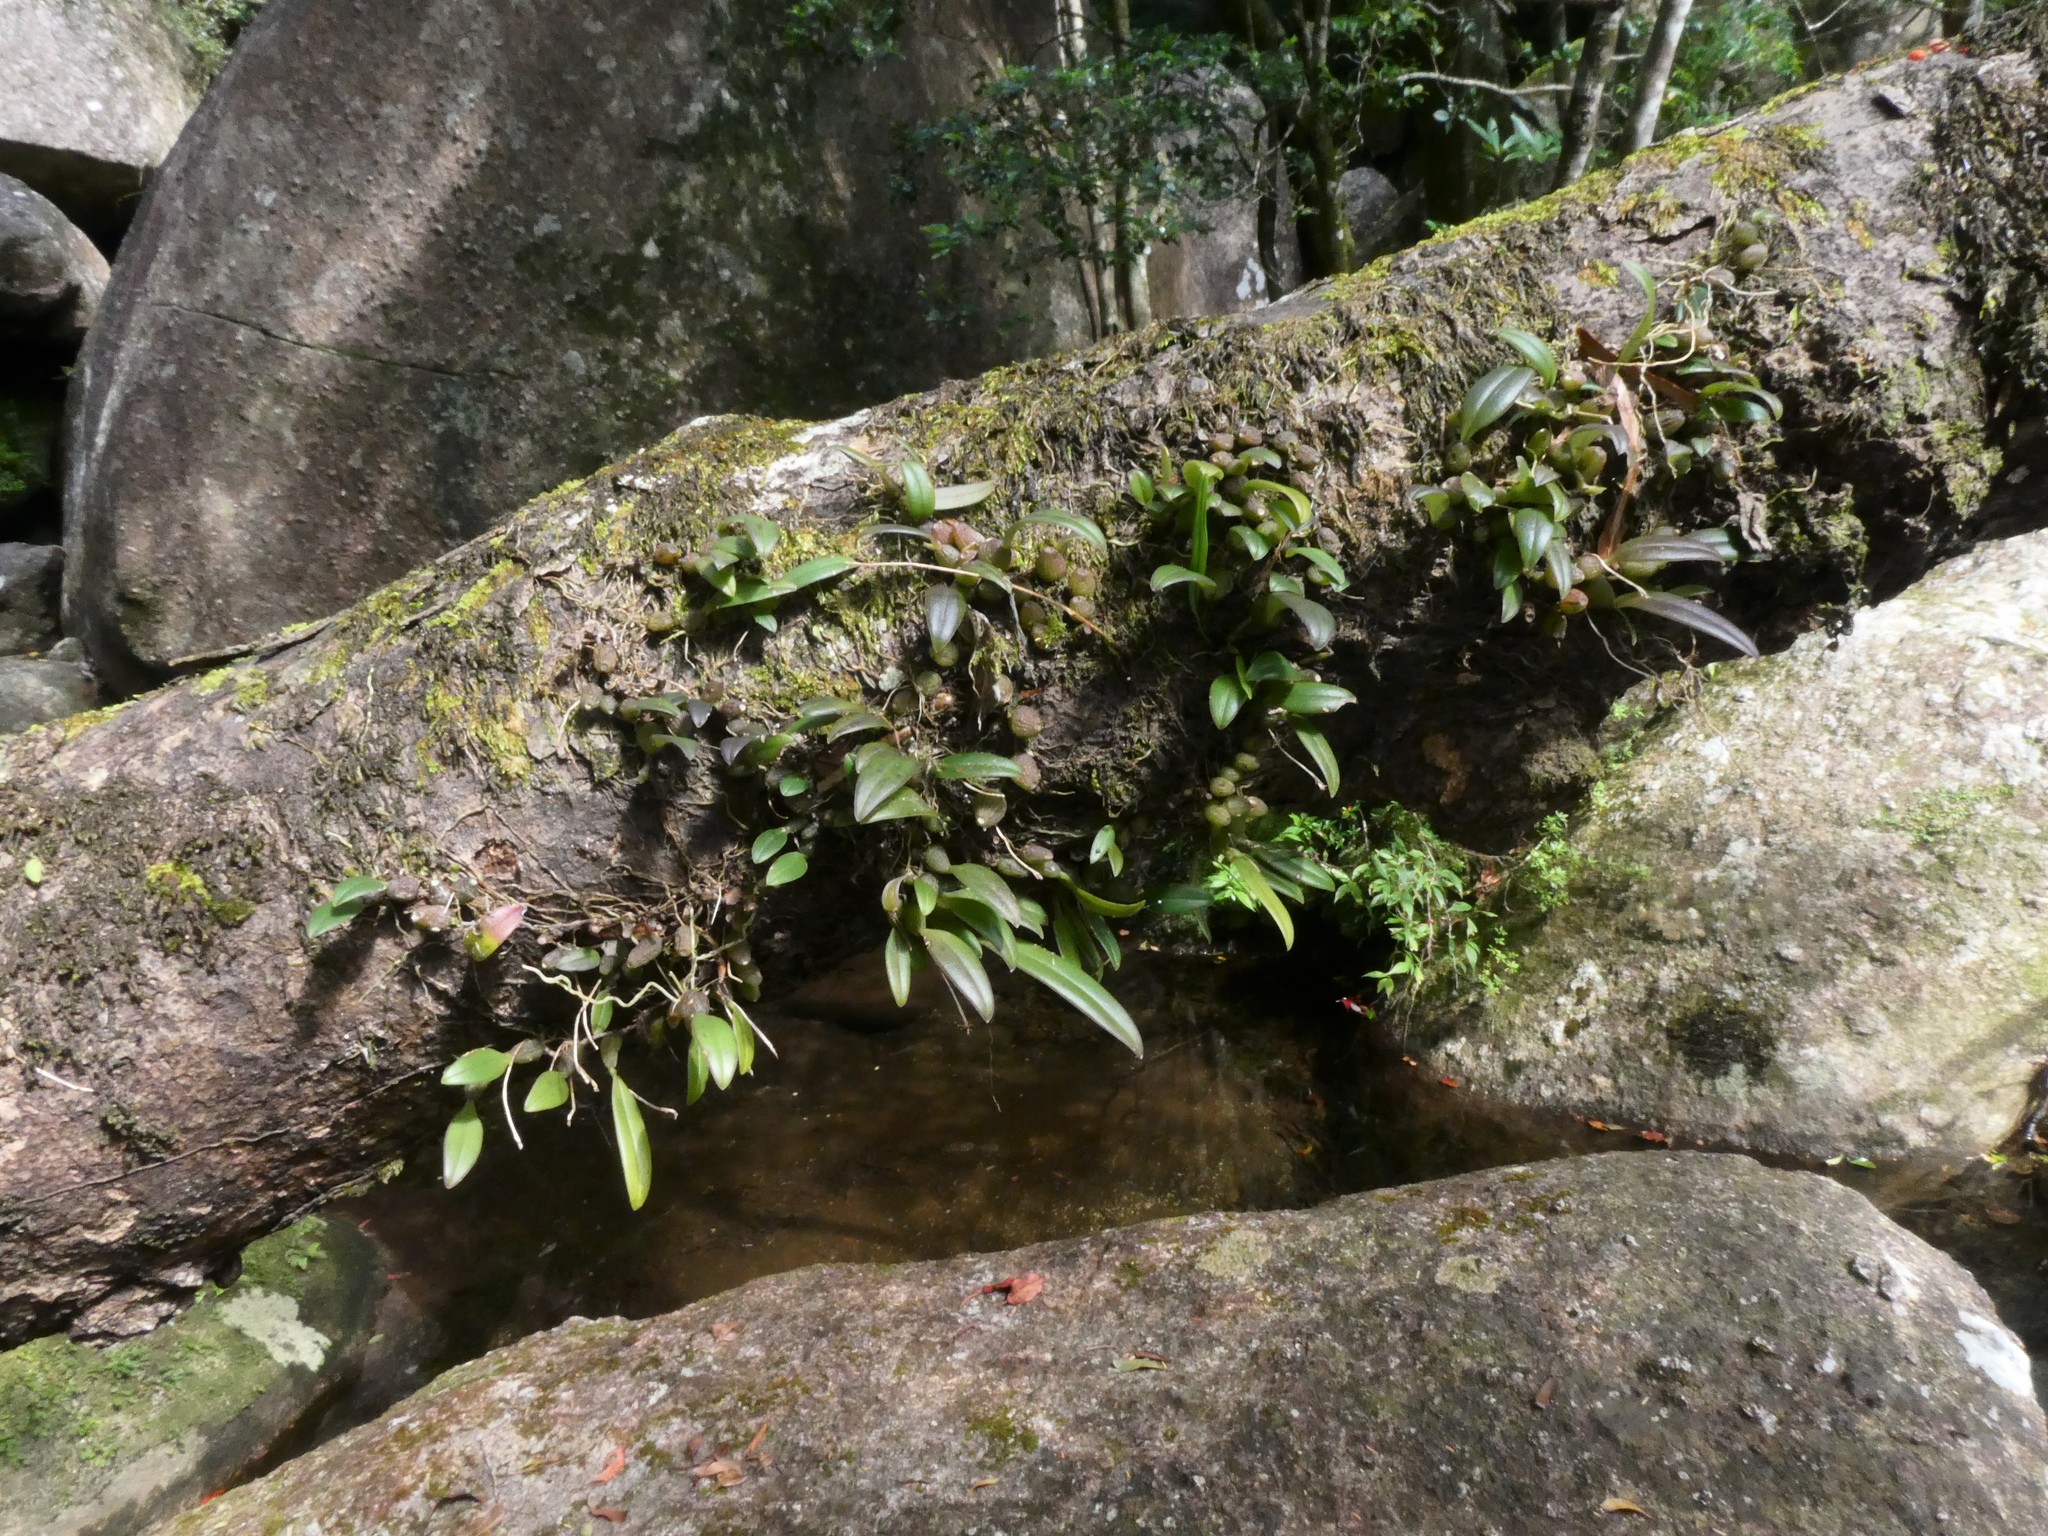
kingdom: Plantae
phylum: Tracheophyta
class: Liliopsida
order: Asparagales
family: Orchidaceae
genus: Bulbophyllum
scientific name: Bulbophyllum japonicum
